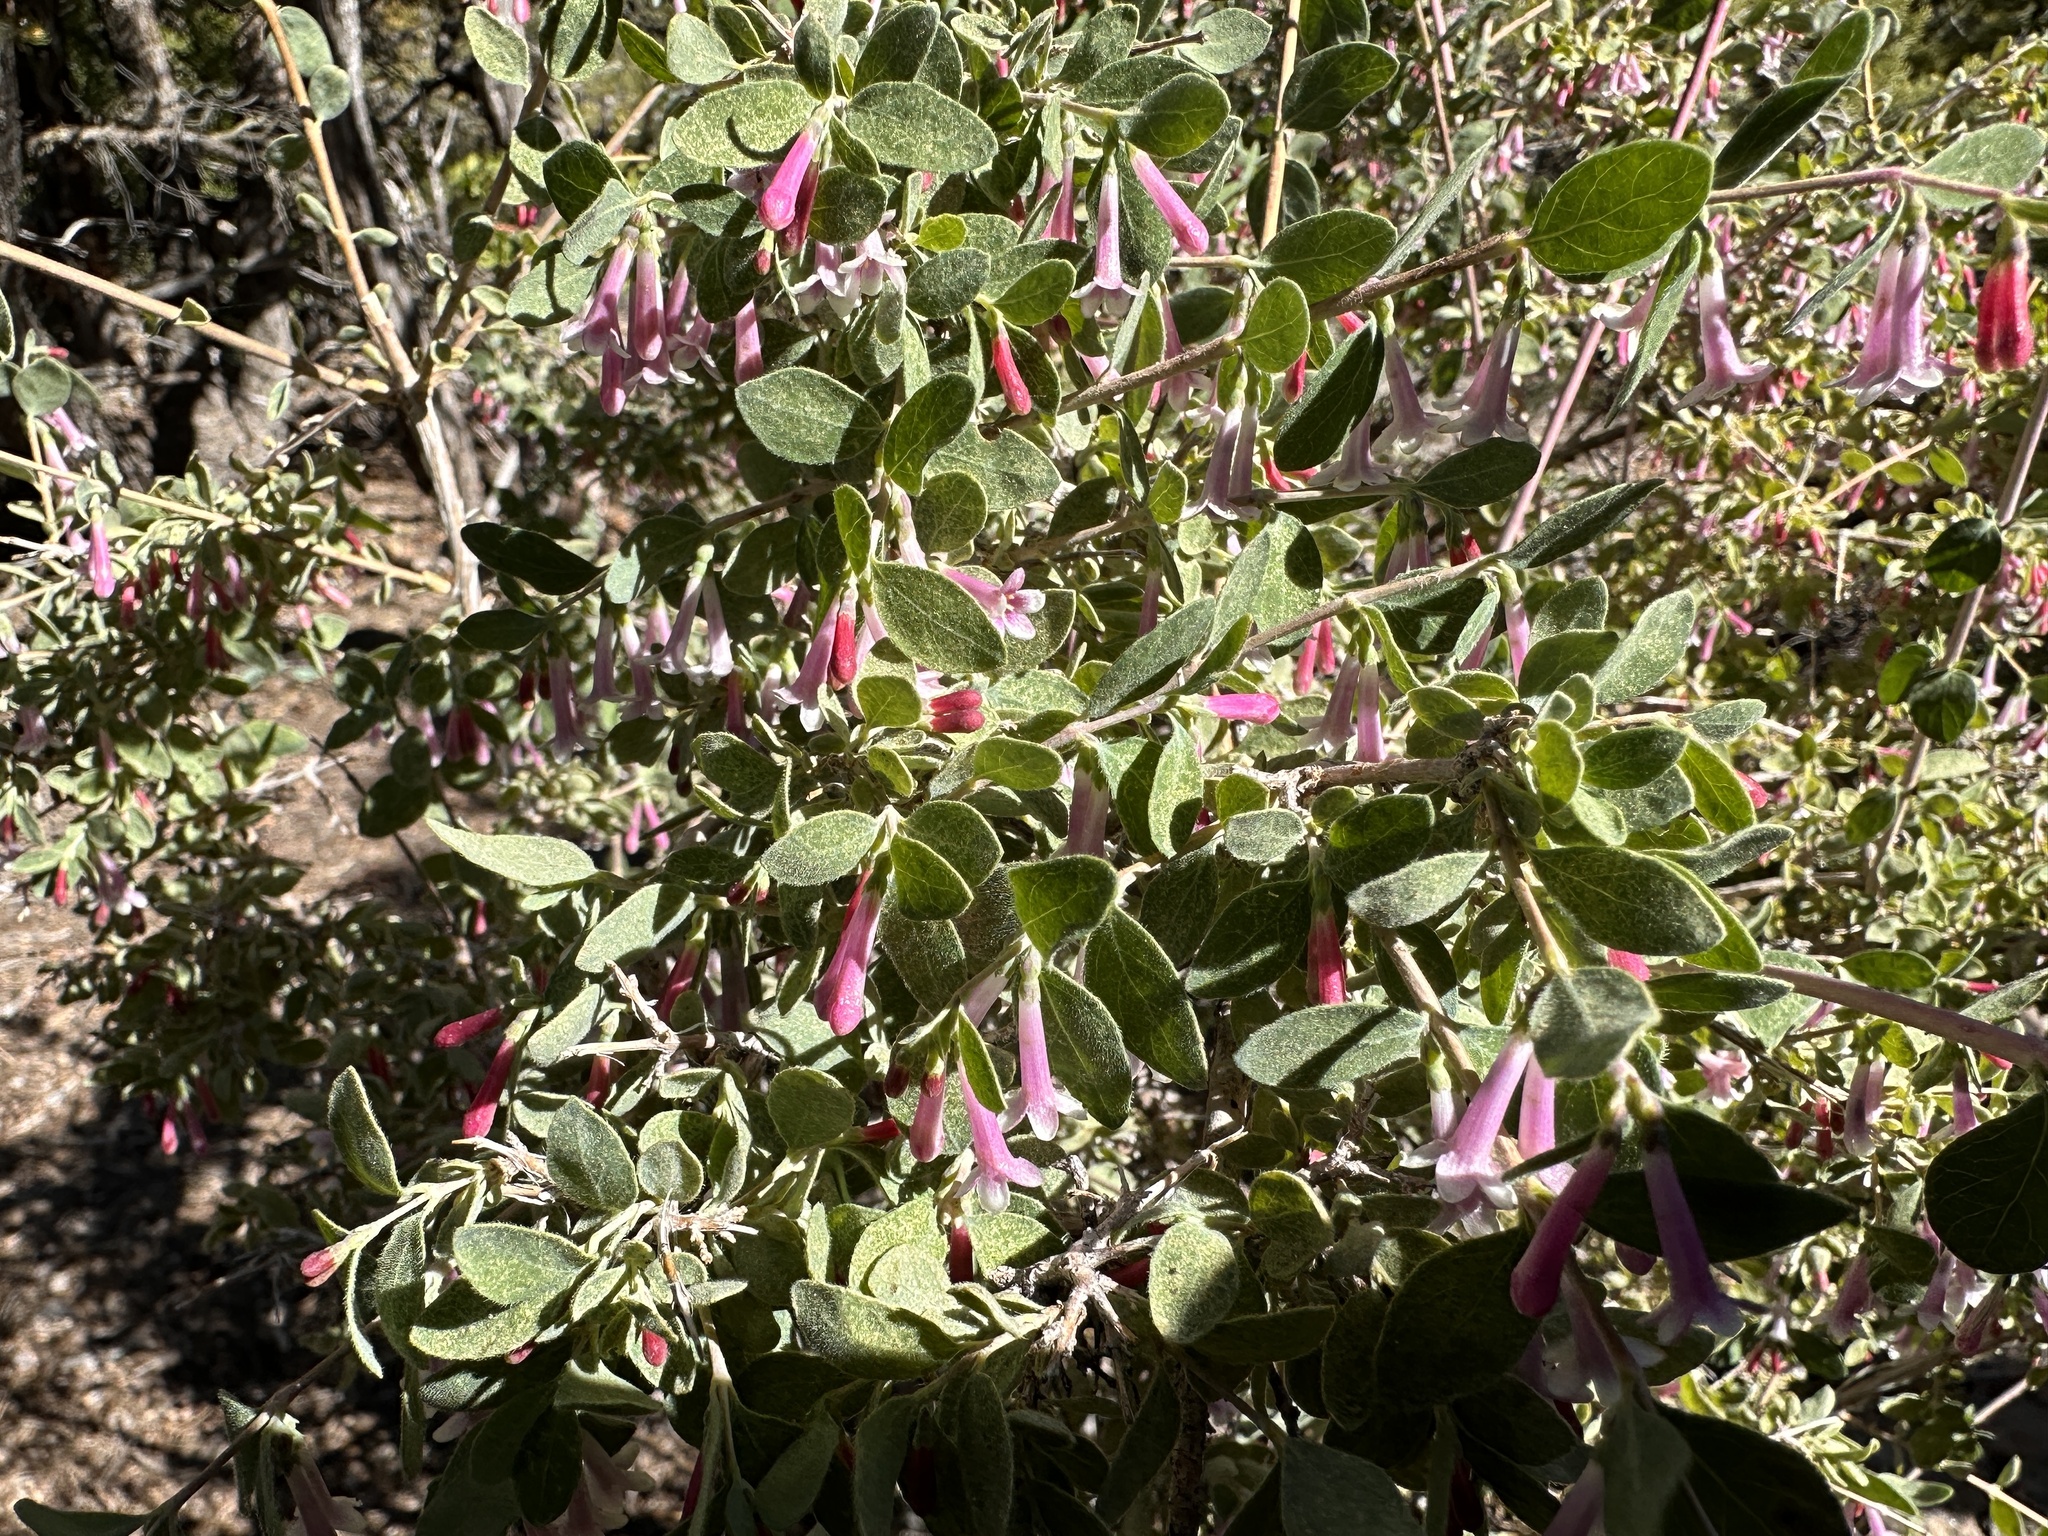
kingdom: Plantae
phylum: Tracheophyta
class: Magnoliopsida
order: Dipsacales
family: Caprifoliaceae
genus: Symphoricarpos
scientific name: Symphoricarpos longiflorus
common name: Fragrant snowberry
